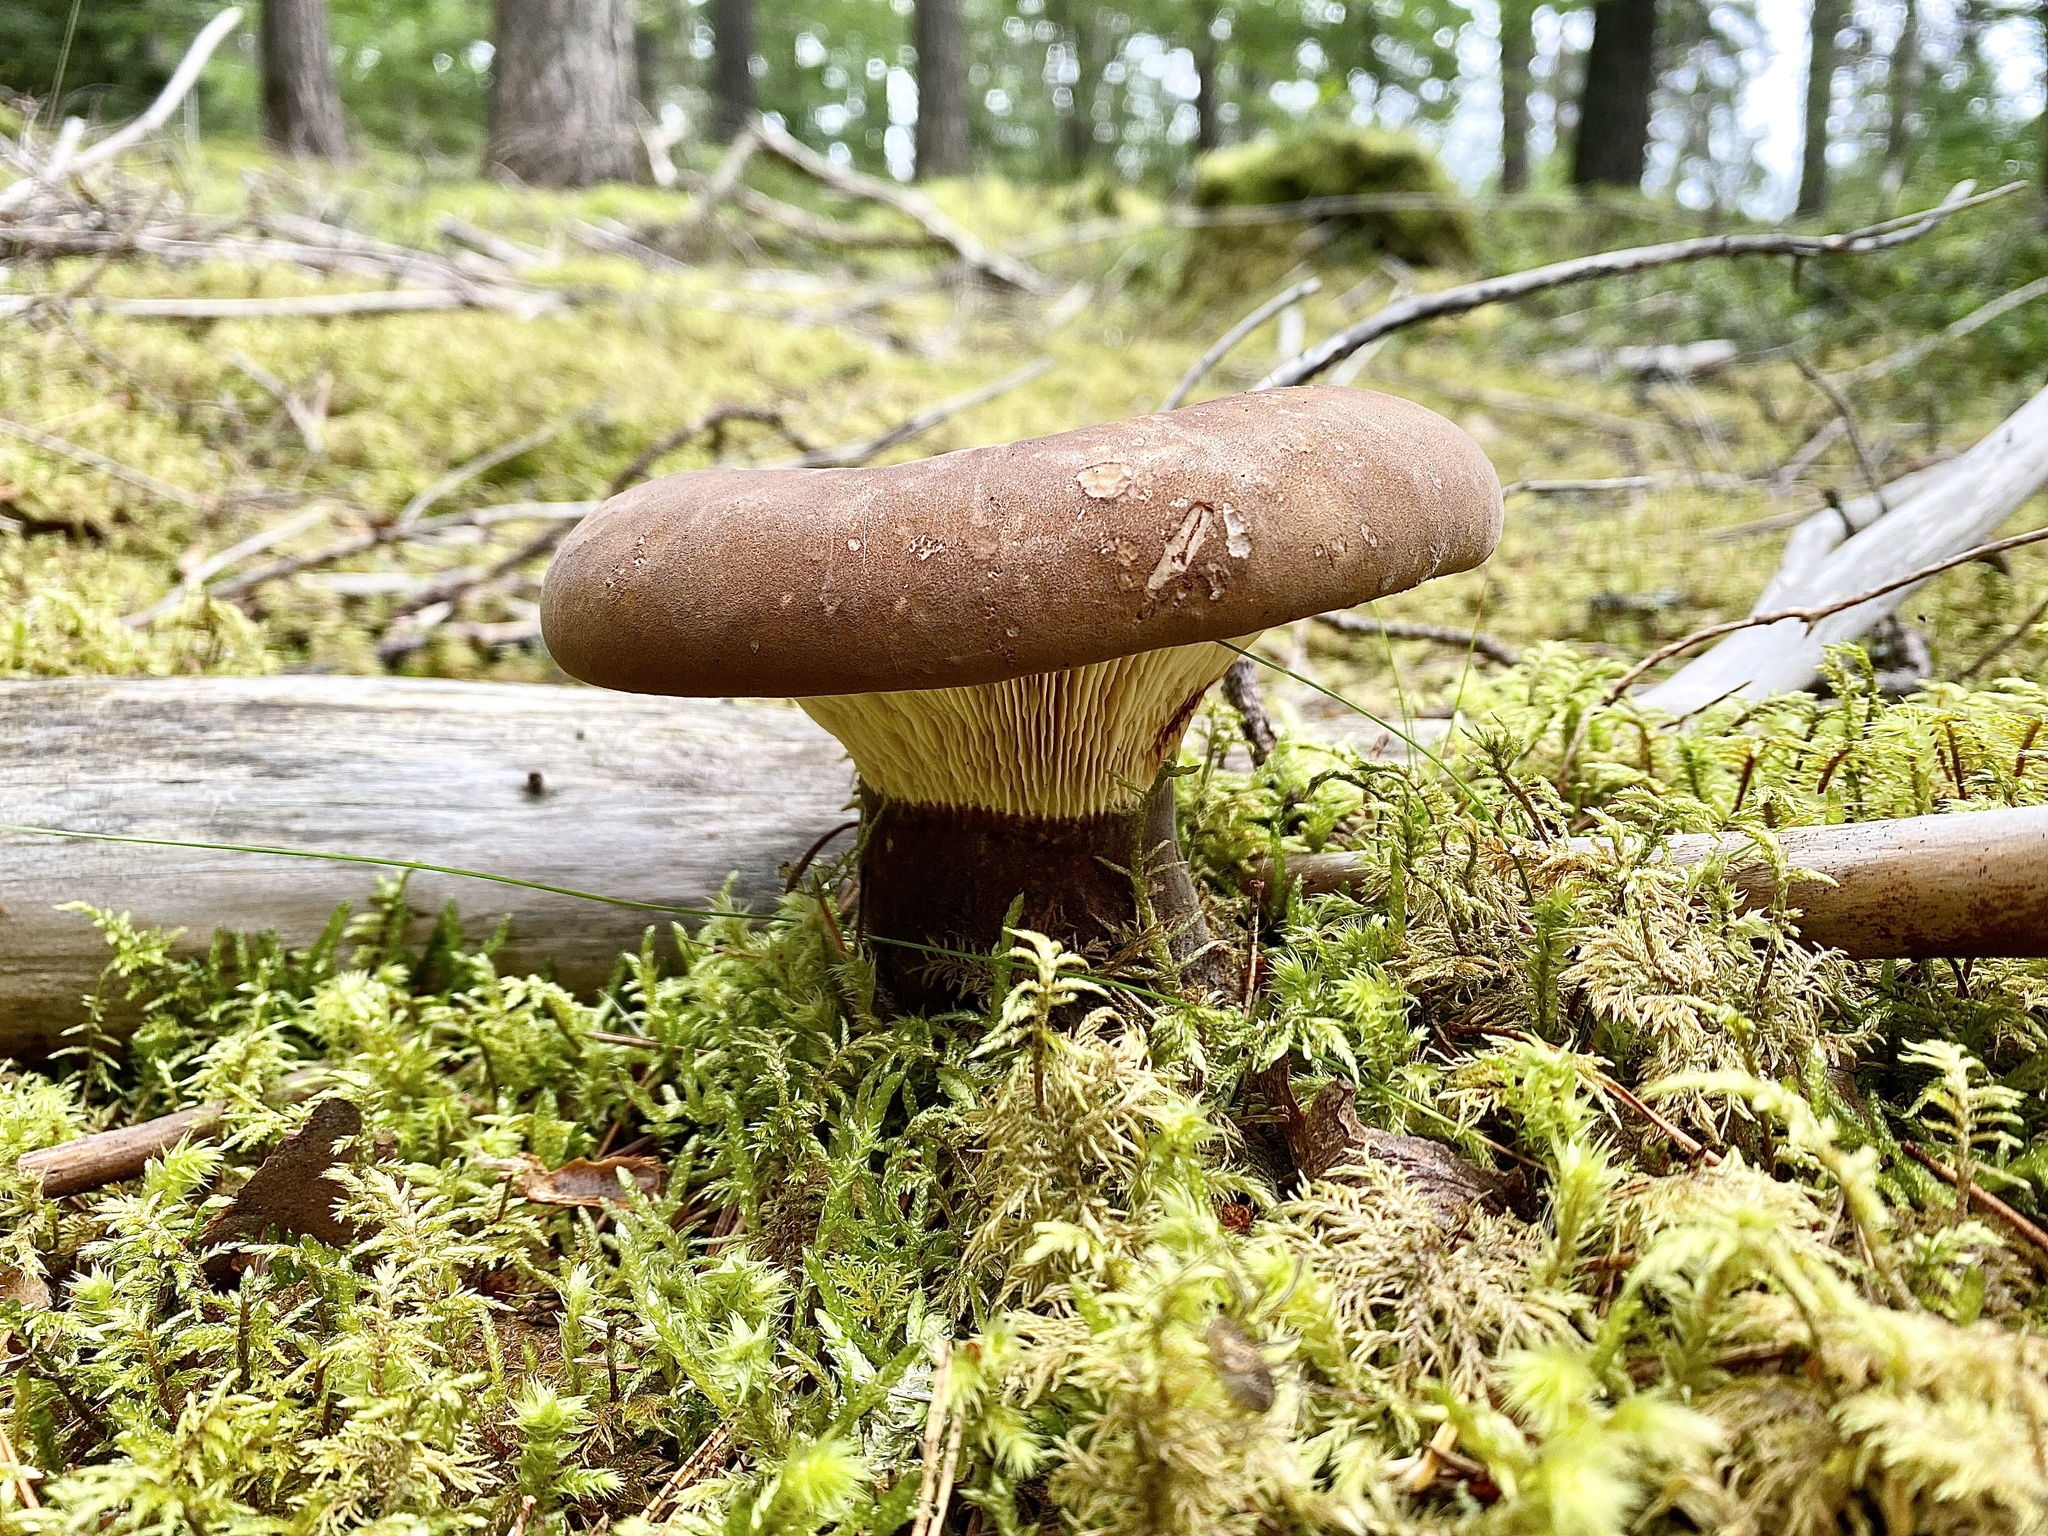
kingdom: Fungi
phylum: Basidiomycota
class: Agaricomycetes
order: Boletales
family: Tapinellaceae
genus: Tapinella
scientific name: Tapinella atrotomentosa
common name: Velvet rollrim
